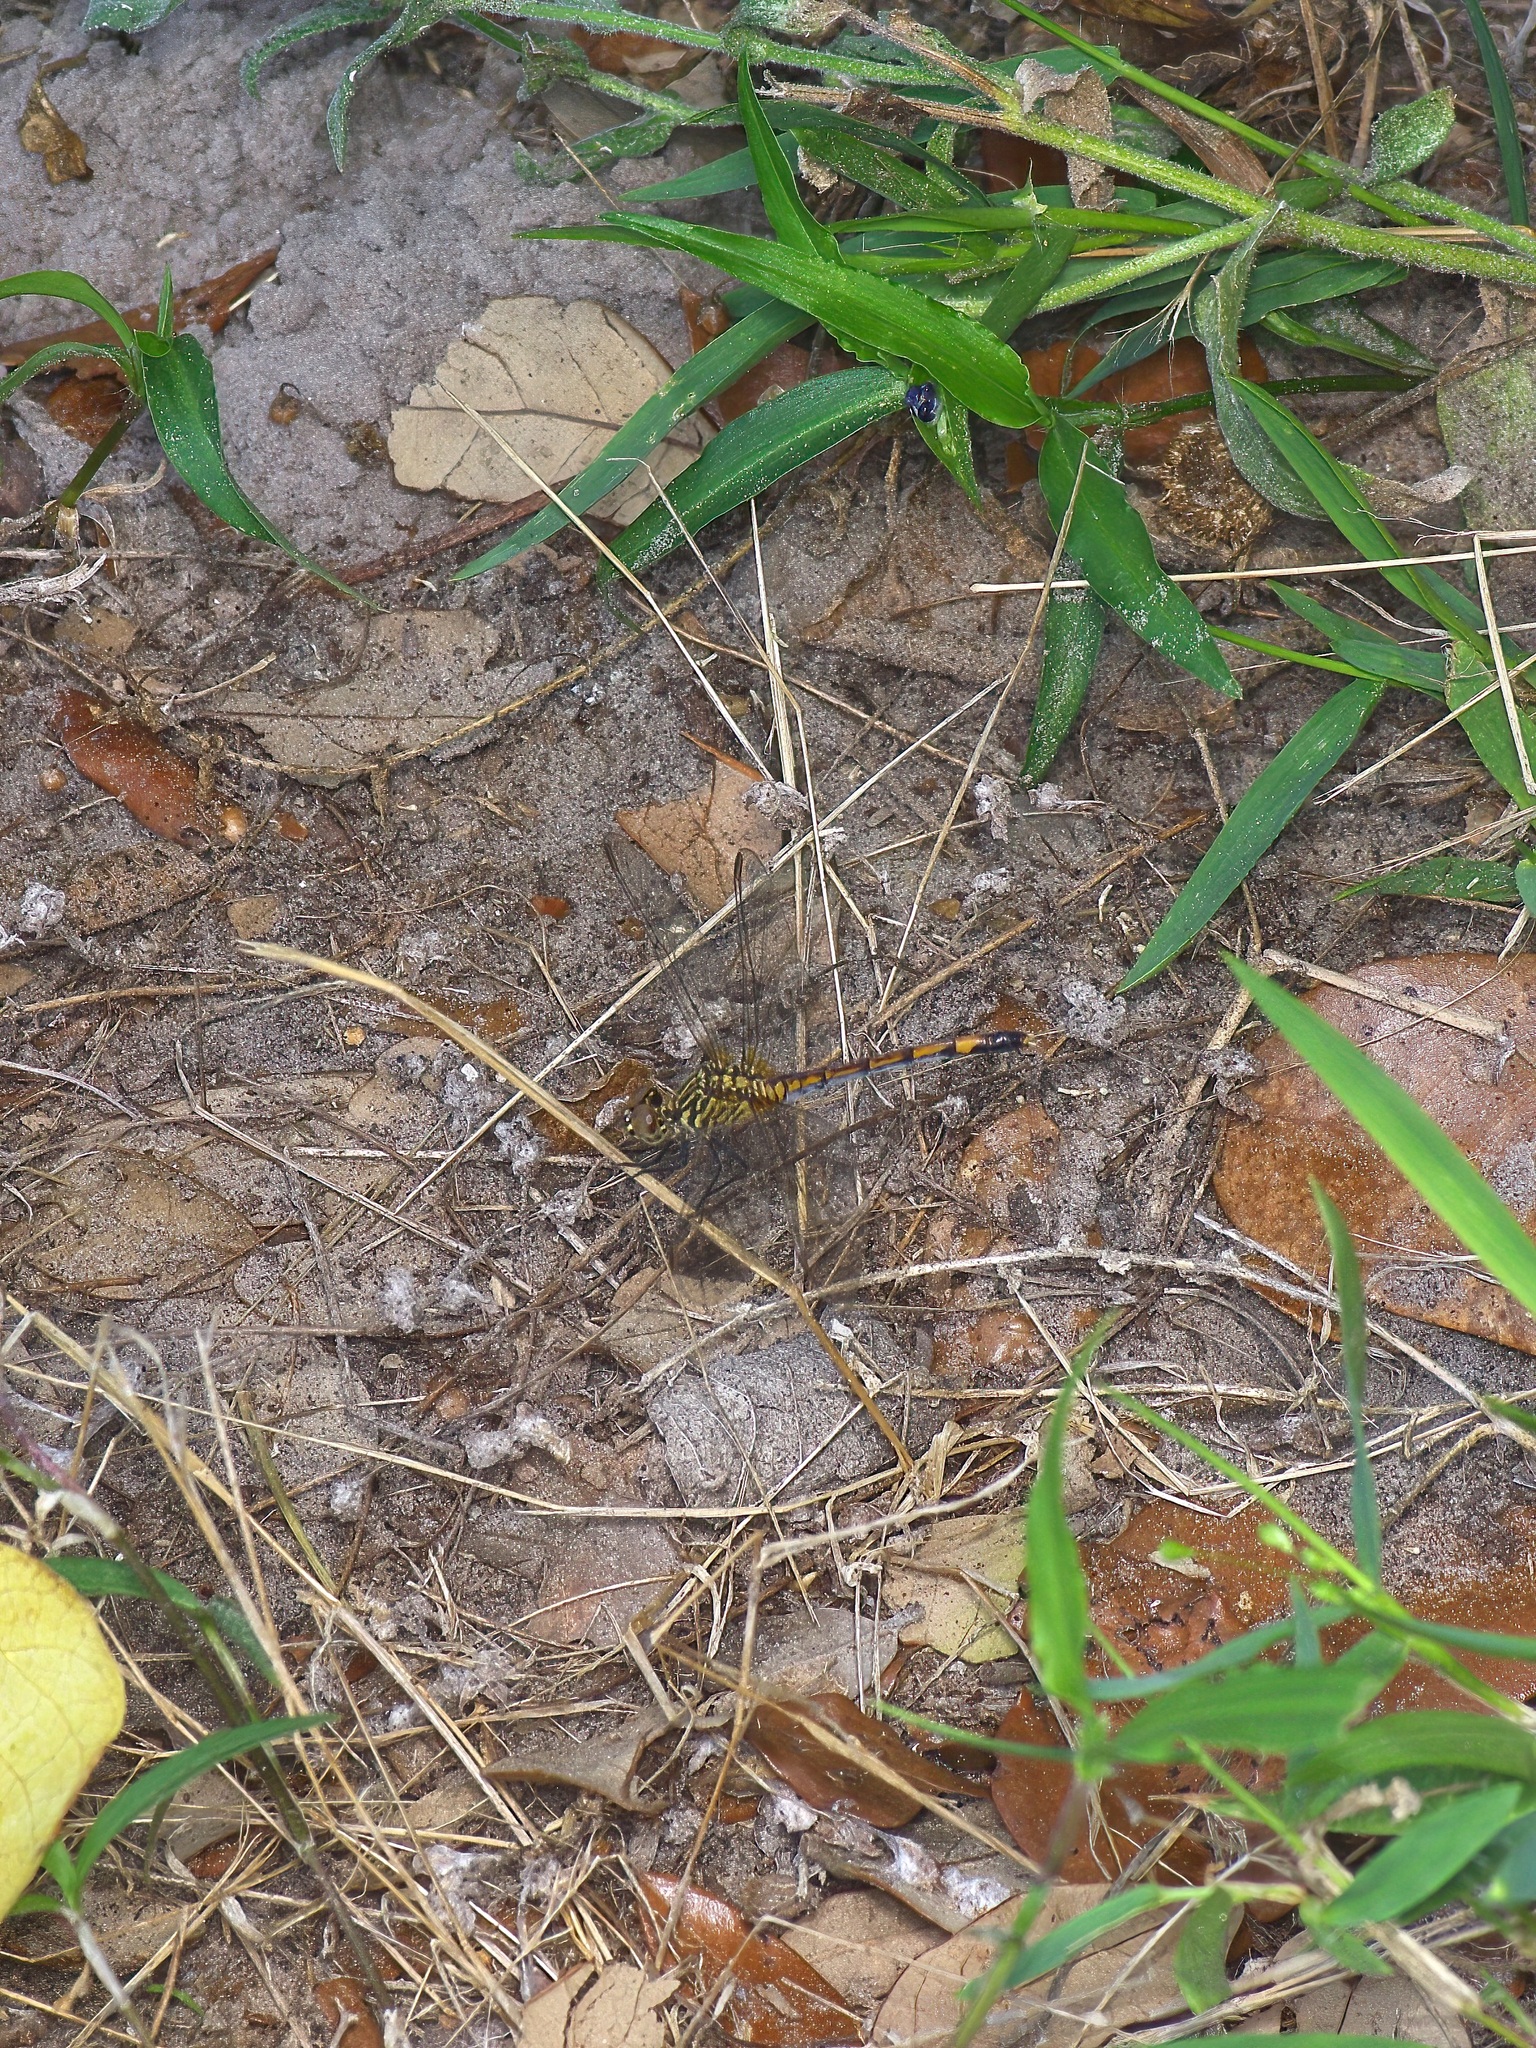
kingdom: Animalia
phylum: Arthropoda
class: Insecta
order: Odonata
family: Libellulidae
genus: Erythrodiplax
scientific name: Erythrodiplax berenice
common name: Seaside dragonlet
